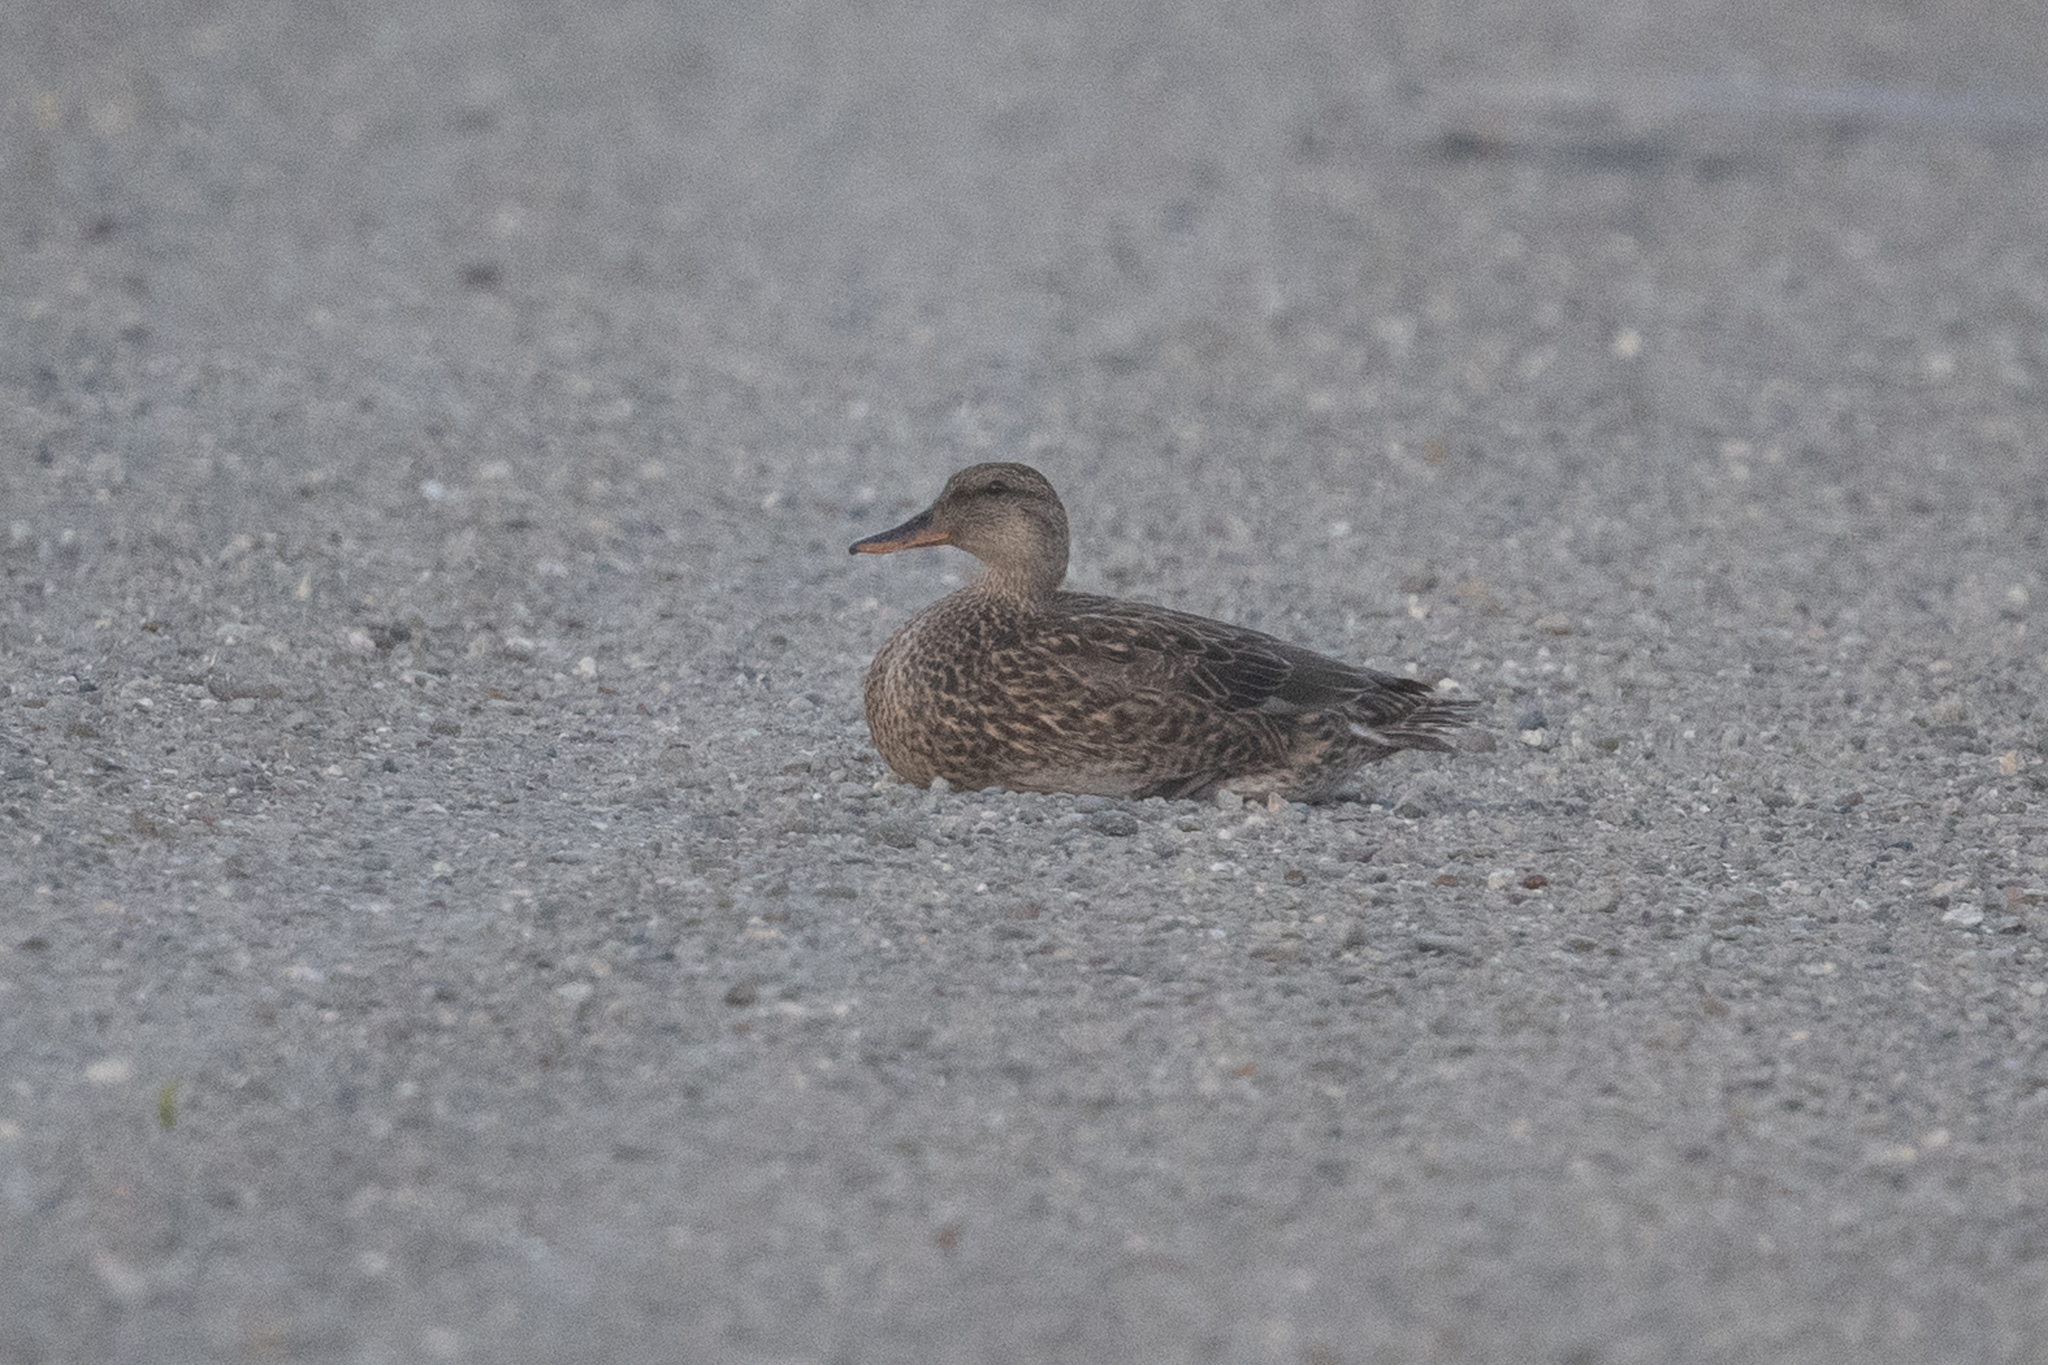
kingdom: Animalia
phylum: Chordata
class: Aves
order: Anseriformes
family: Anatidae
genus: Mareca
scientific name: Mareca strepera
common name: Gadwall
